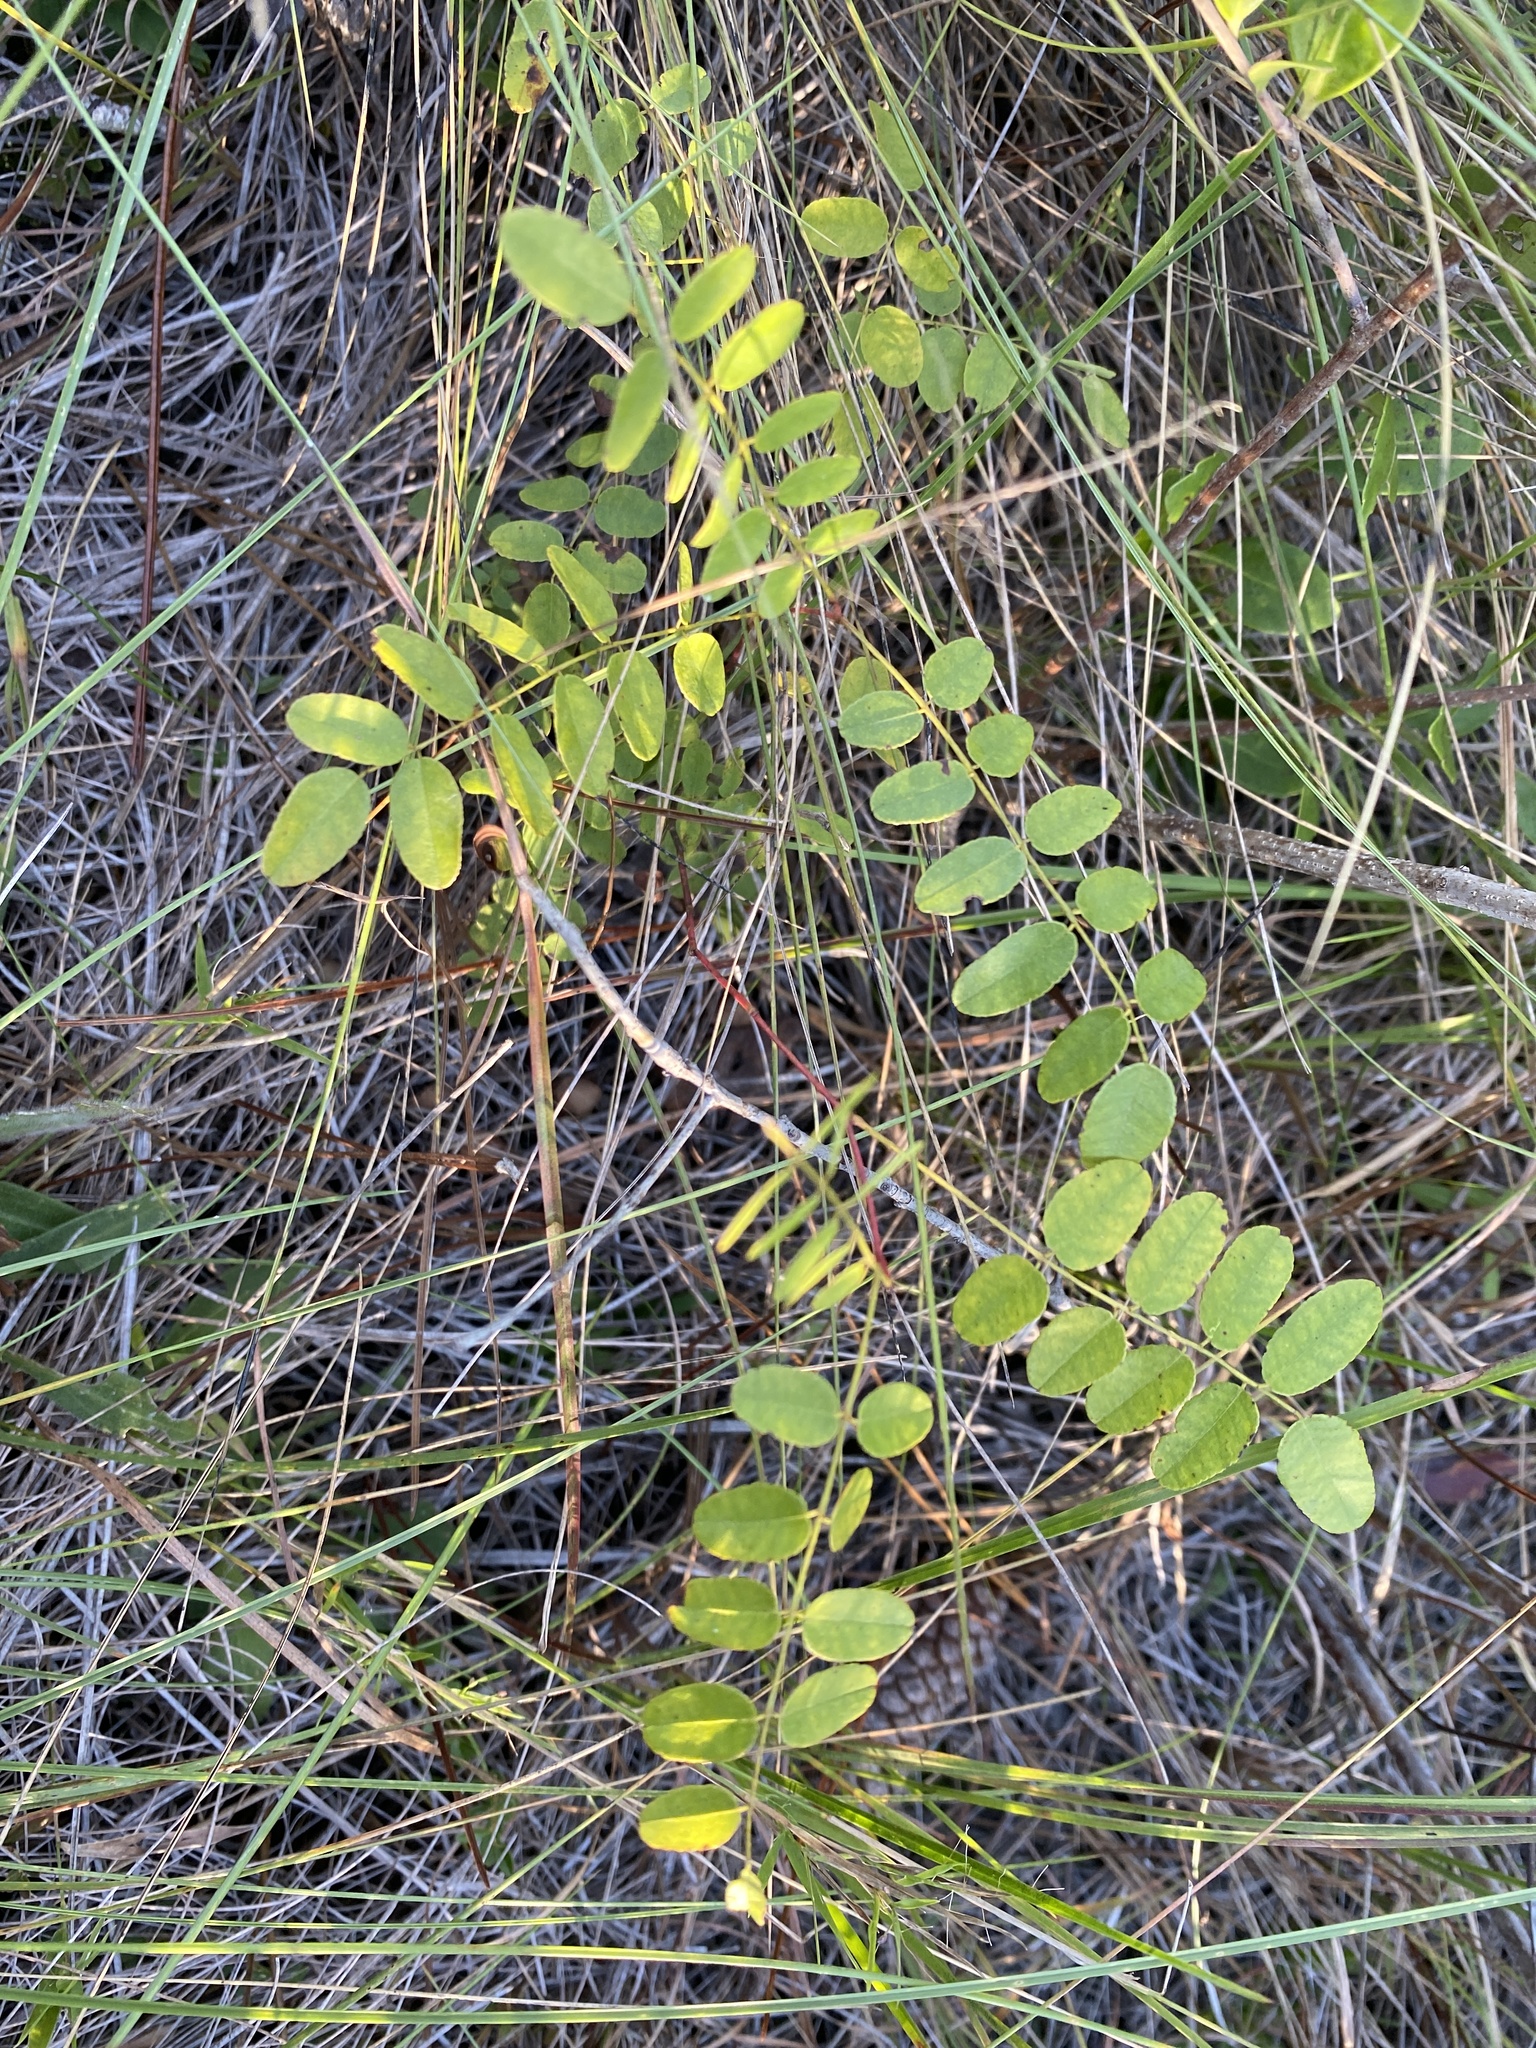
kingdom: Plantae
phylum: Tracheophyta
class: Magnoliopsida
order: Fabales
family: Fabaceae
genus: Amorpha
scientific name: Amorpha confusa
